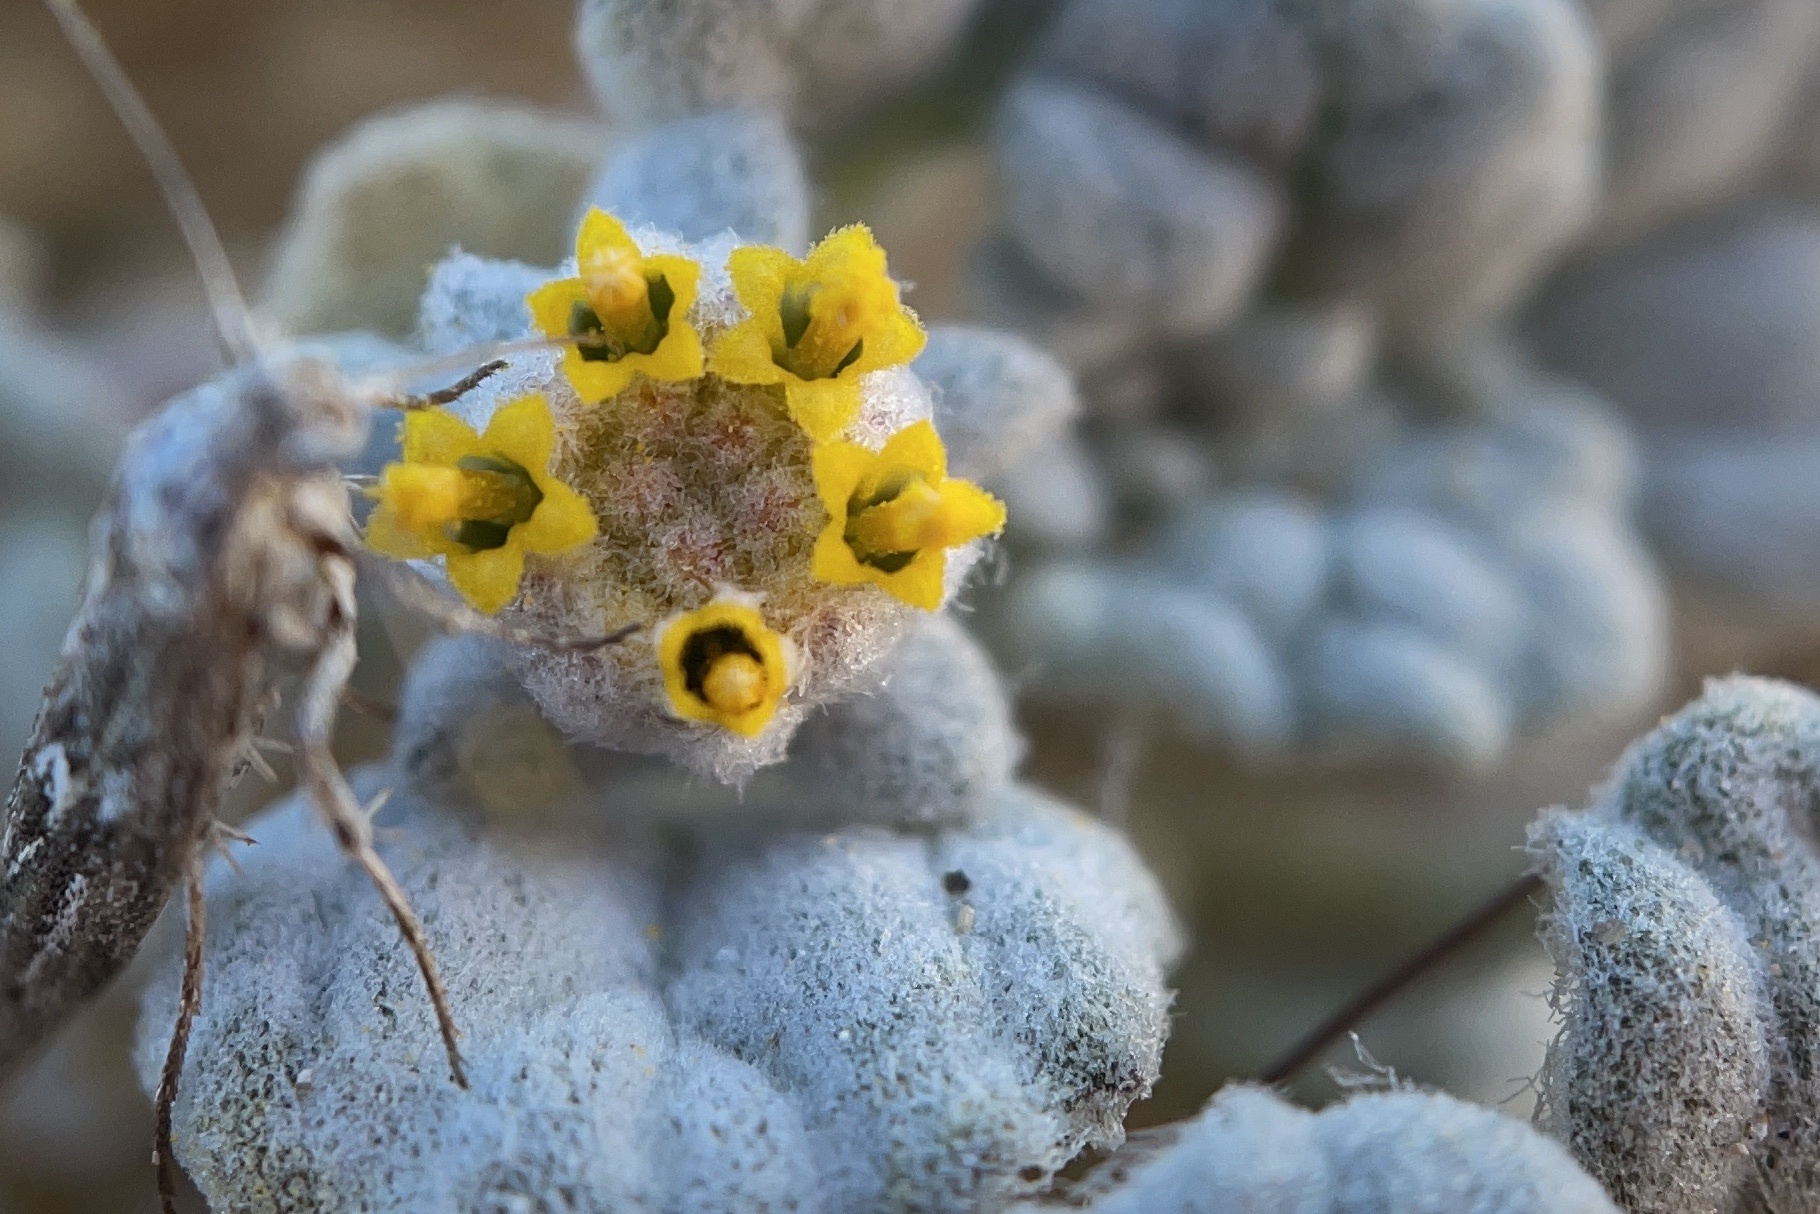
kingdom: Plantae
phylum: Tracheophyta
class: Magnoliopsida
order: Asterales
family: Asteraceae
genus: Psathyrotes
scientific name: Psathyrotes ramosissima
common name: Turtleback
